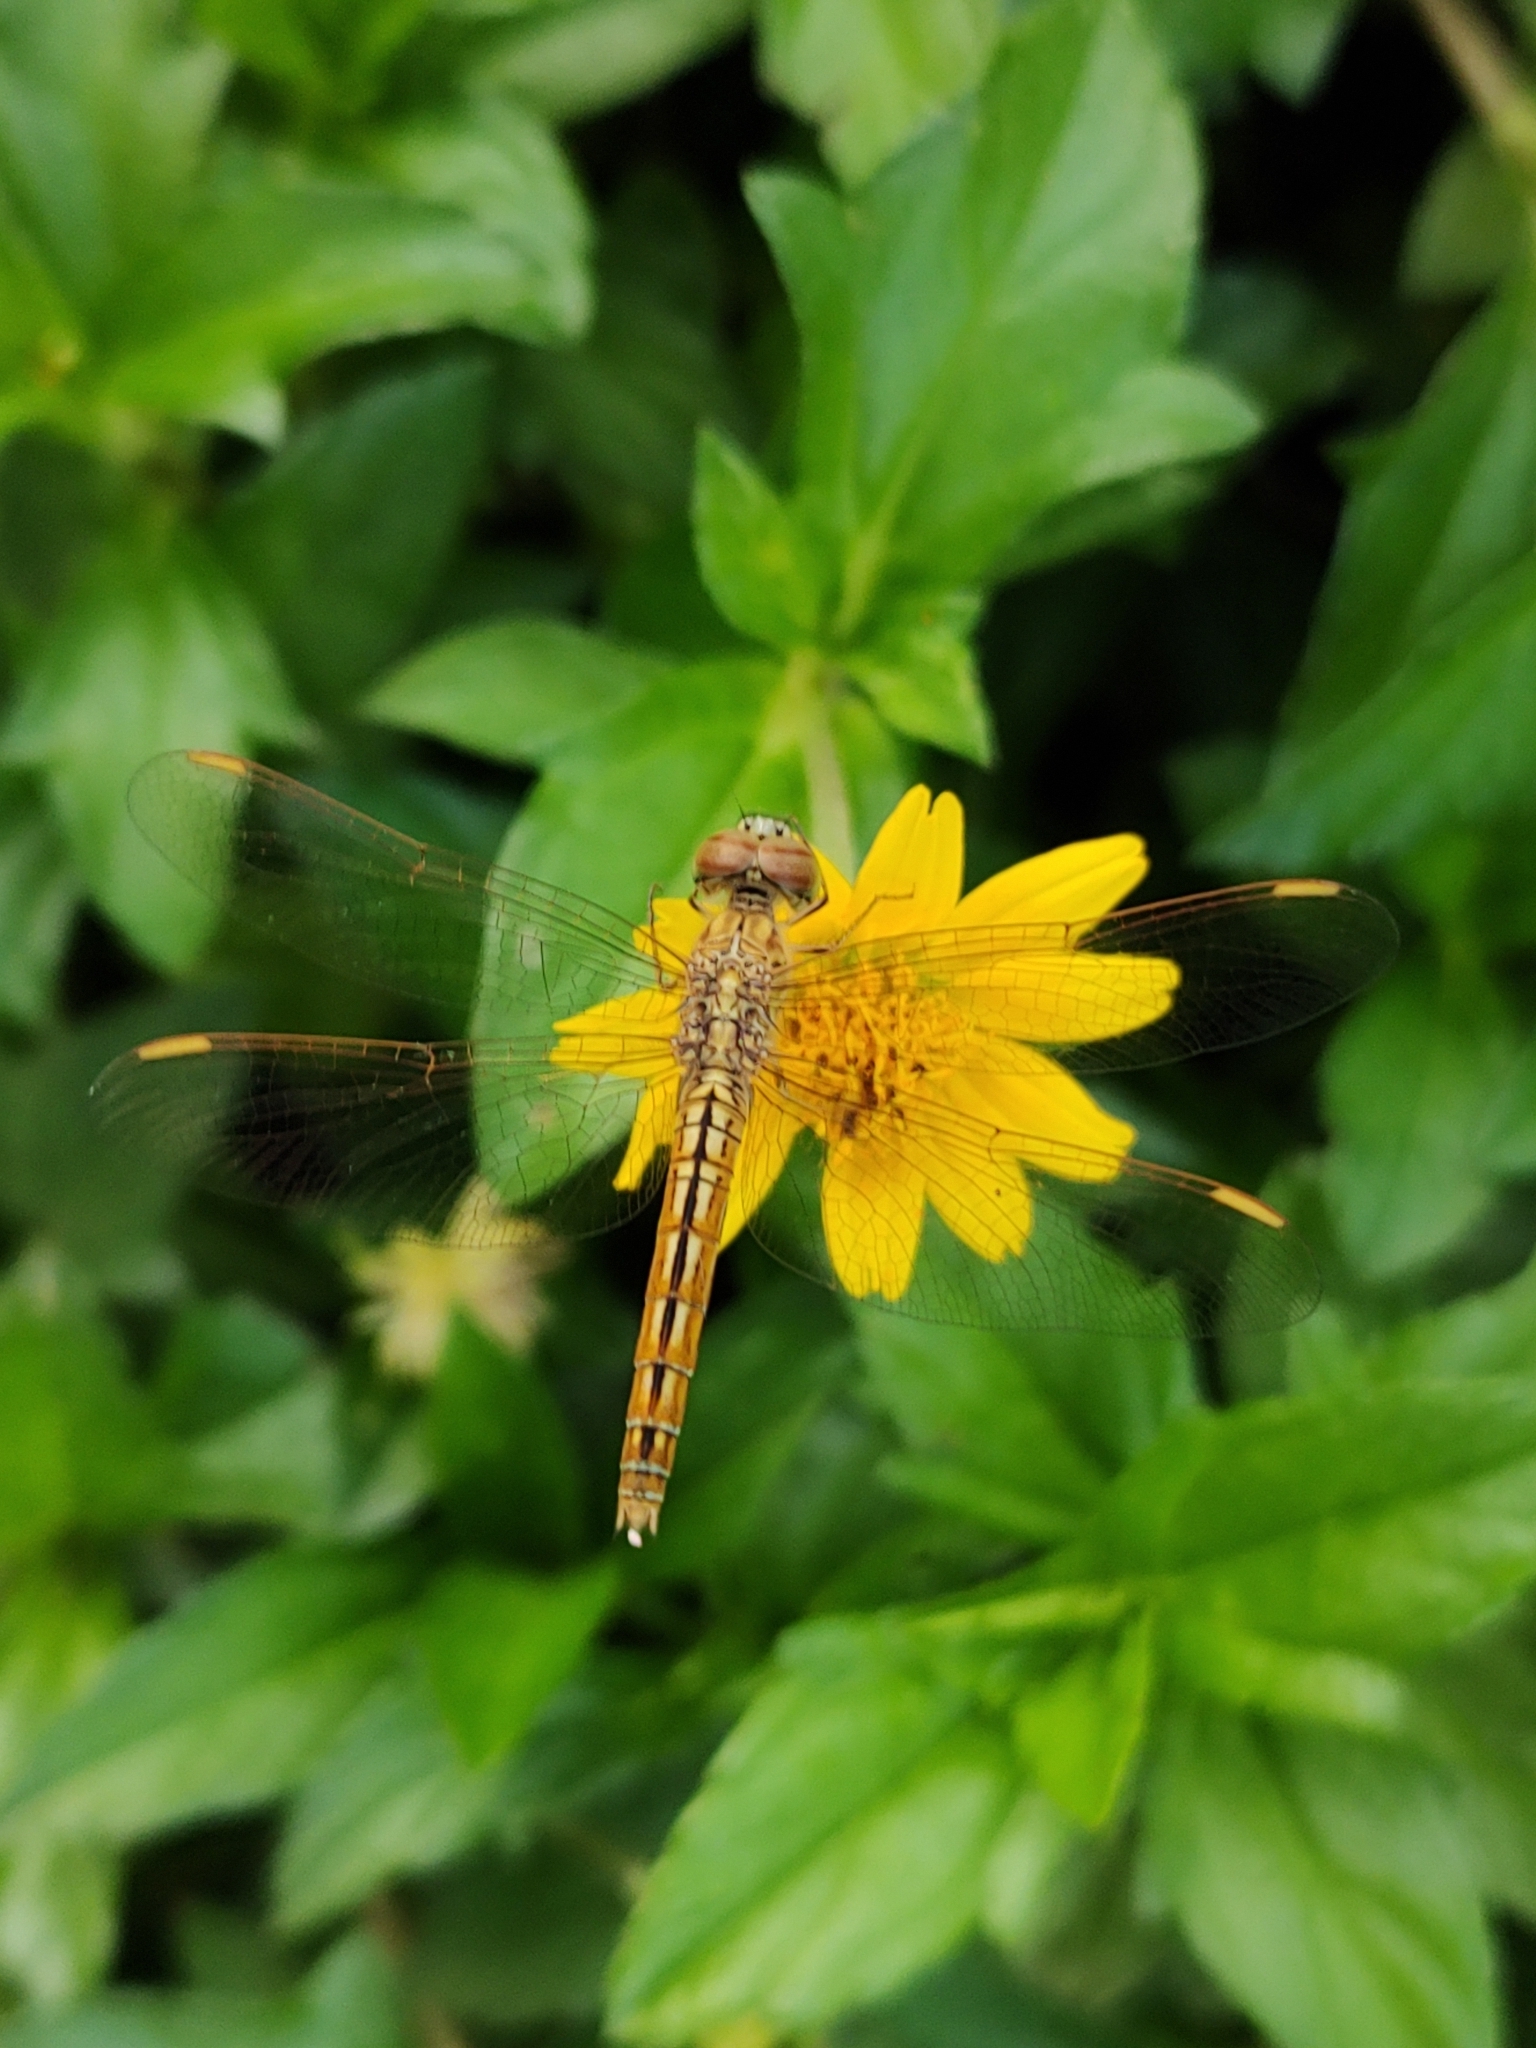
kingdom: Animalia
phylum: Arthropoda
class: Insecta
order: Odonata
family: Libellulidae
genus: Brachythemis
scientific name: Brachythemis contaminata
